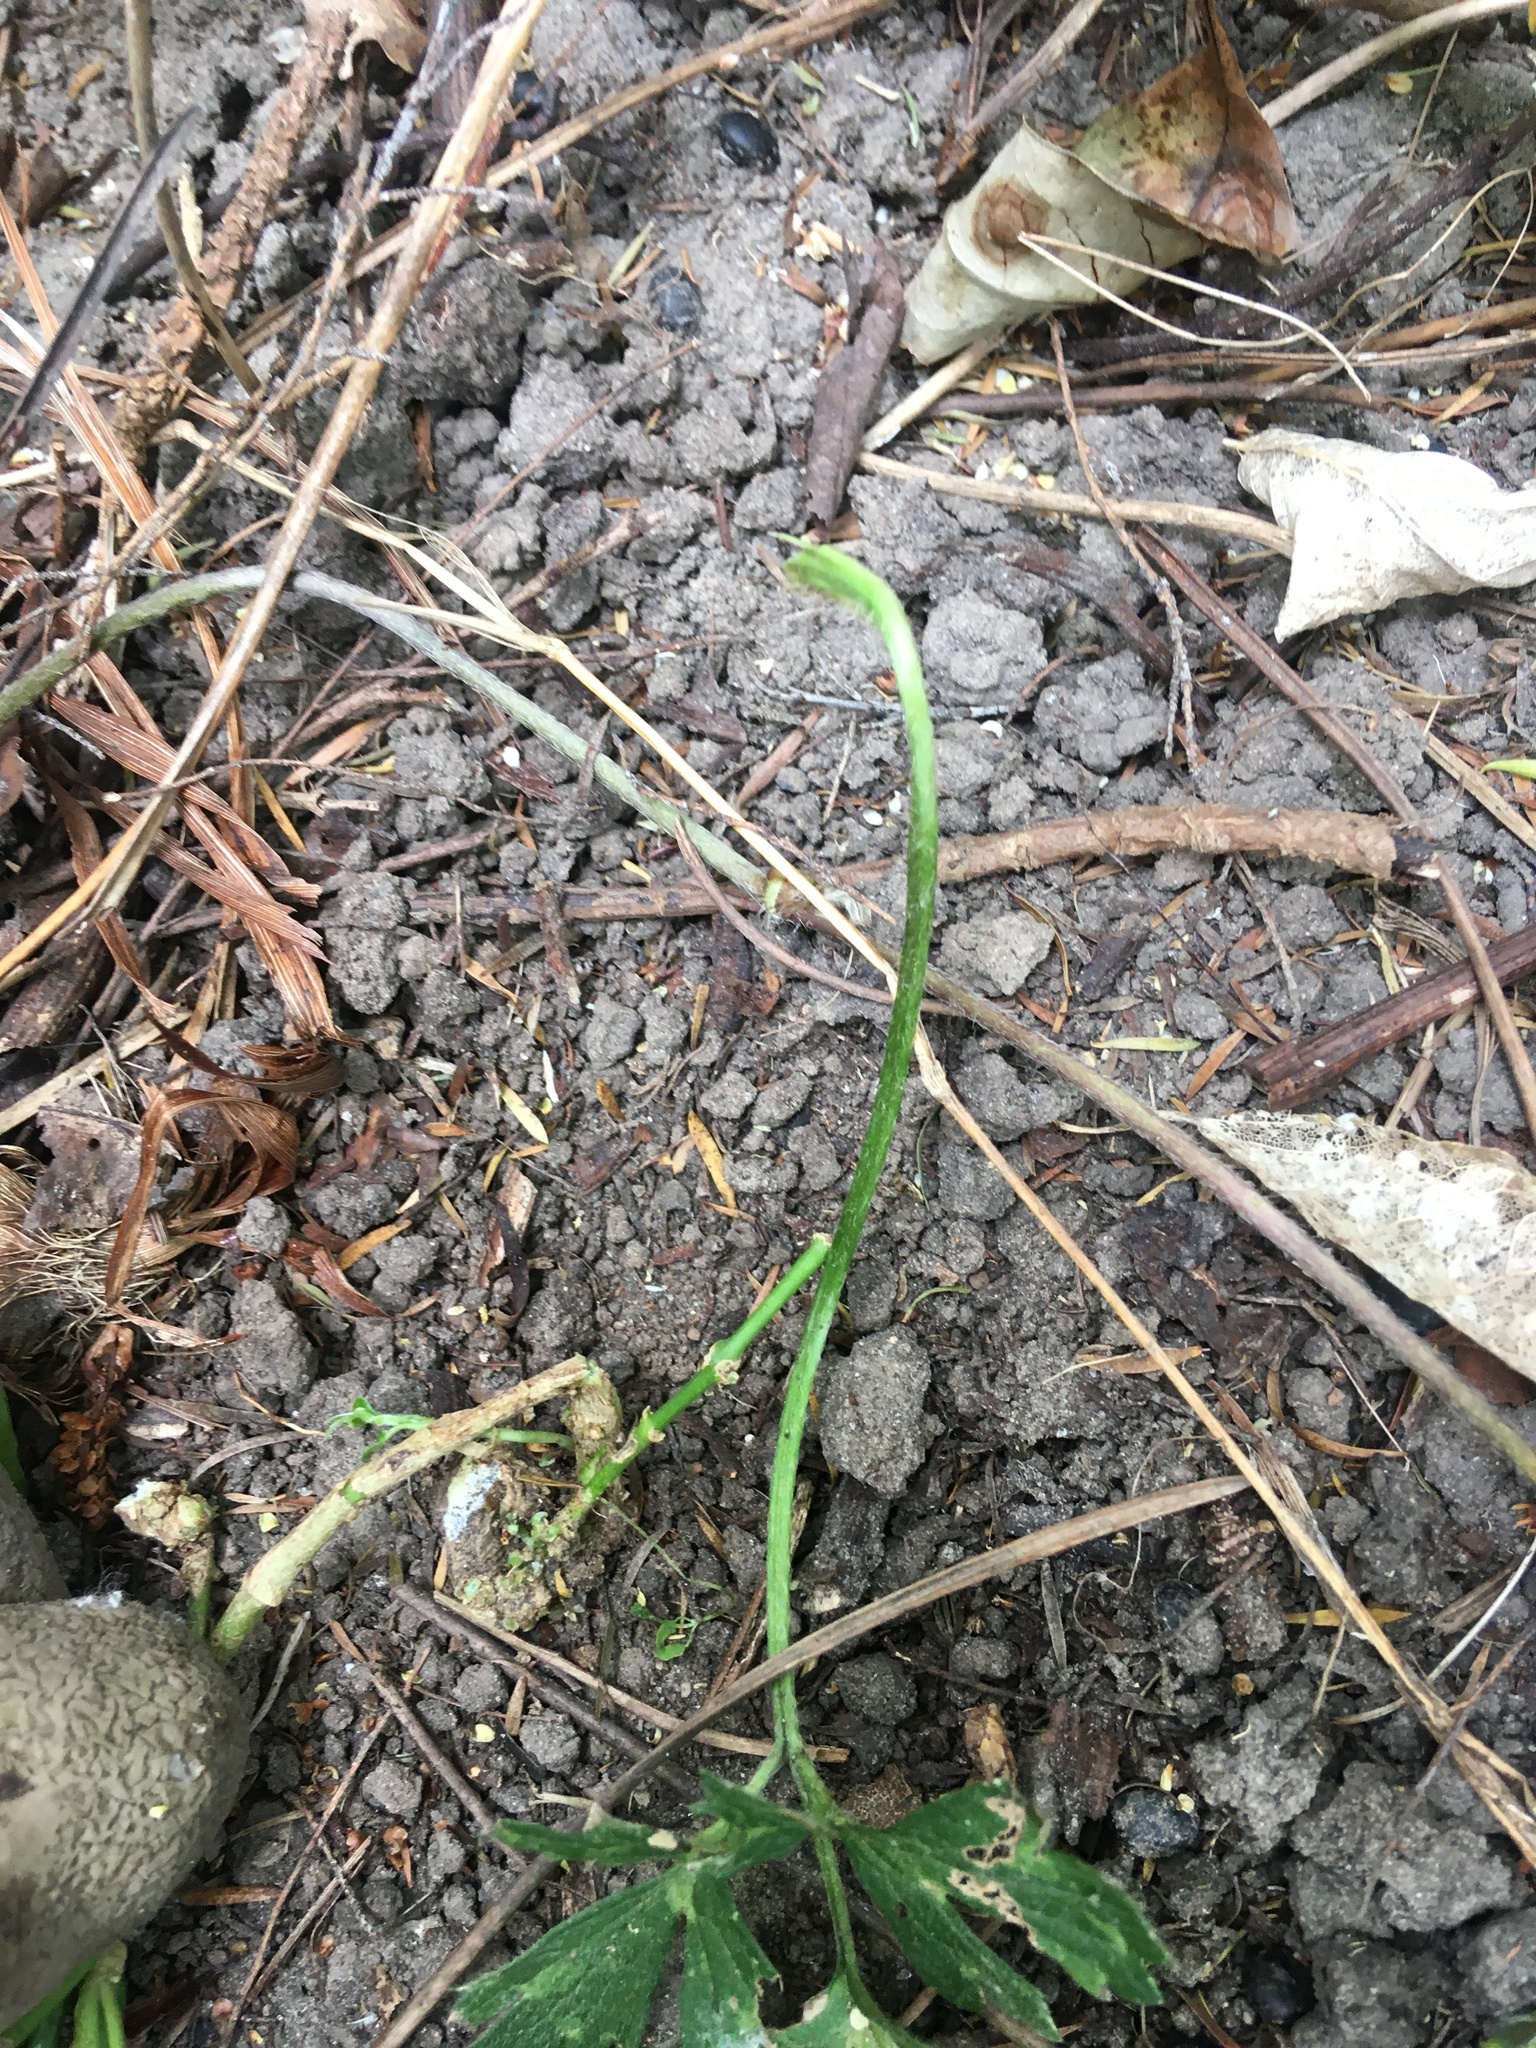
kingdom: Plantae
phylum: Tracheophyta
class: Magnoliopsida
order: Gentianales
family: Apocynaceae
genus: Araujia
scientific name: Araujia sericifera
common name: White bladderflower
